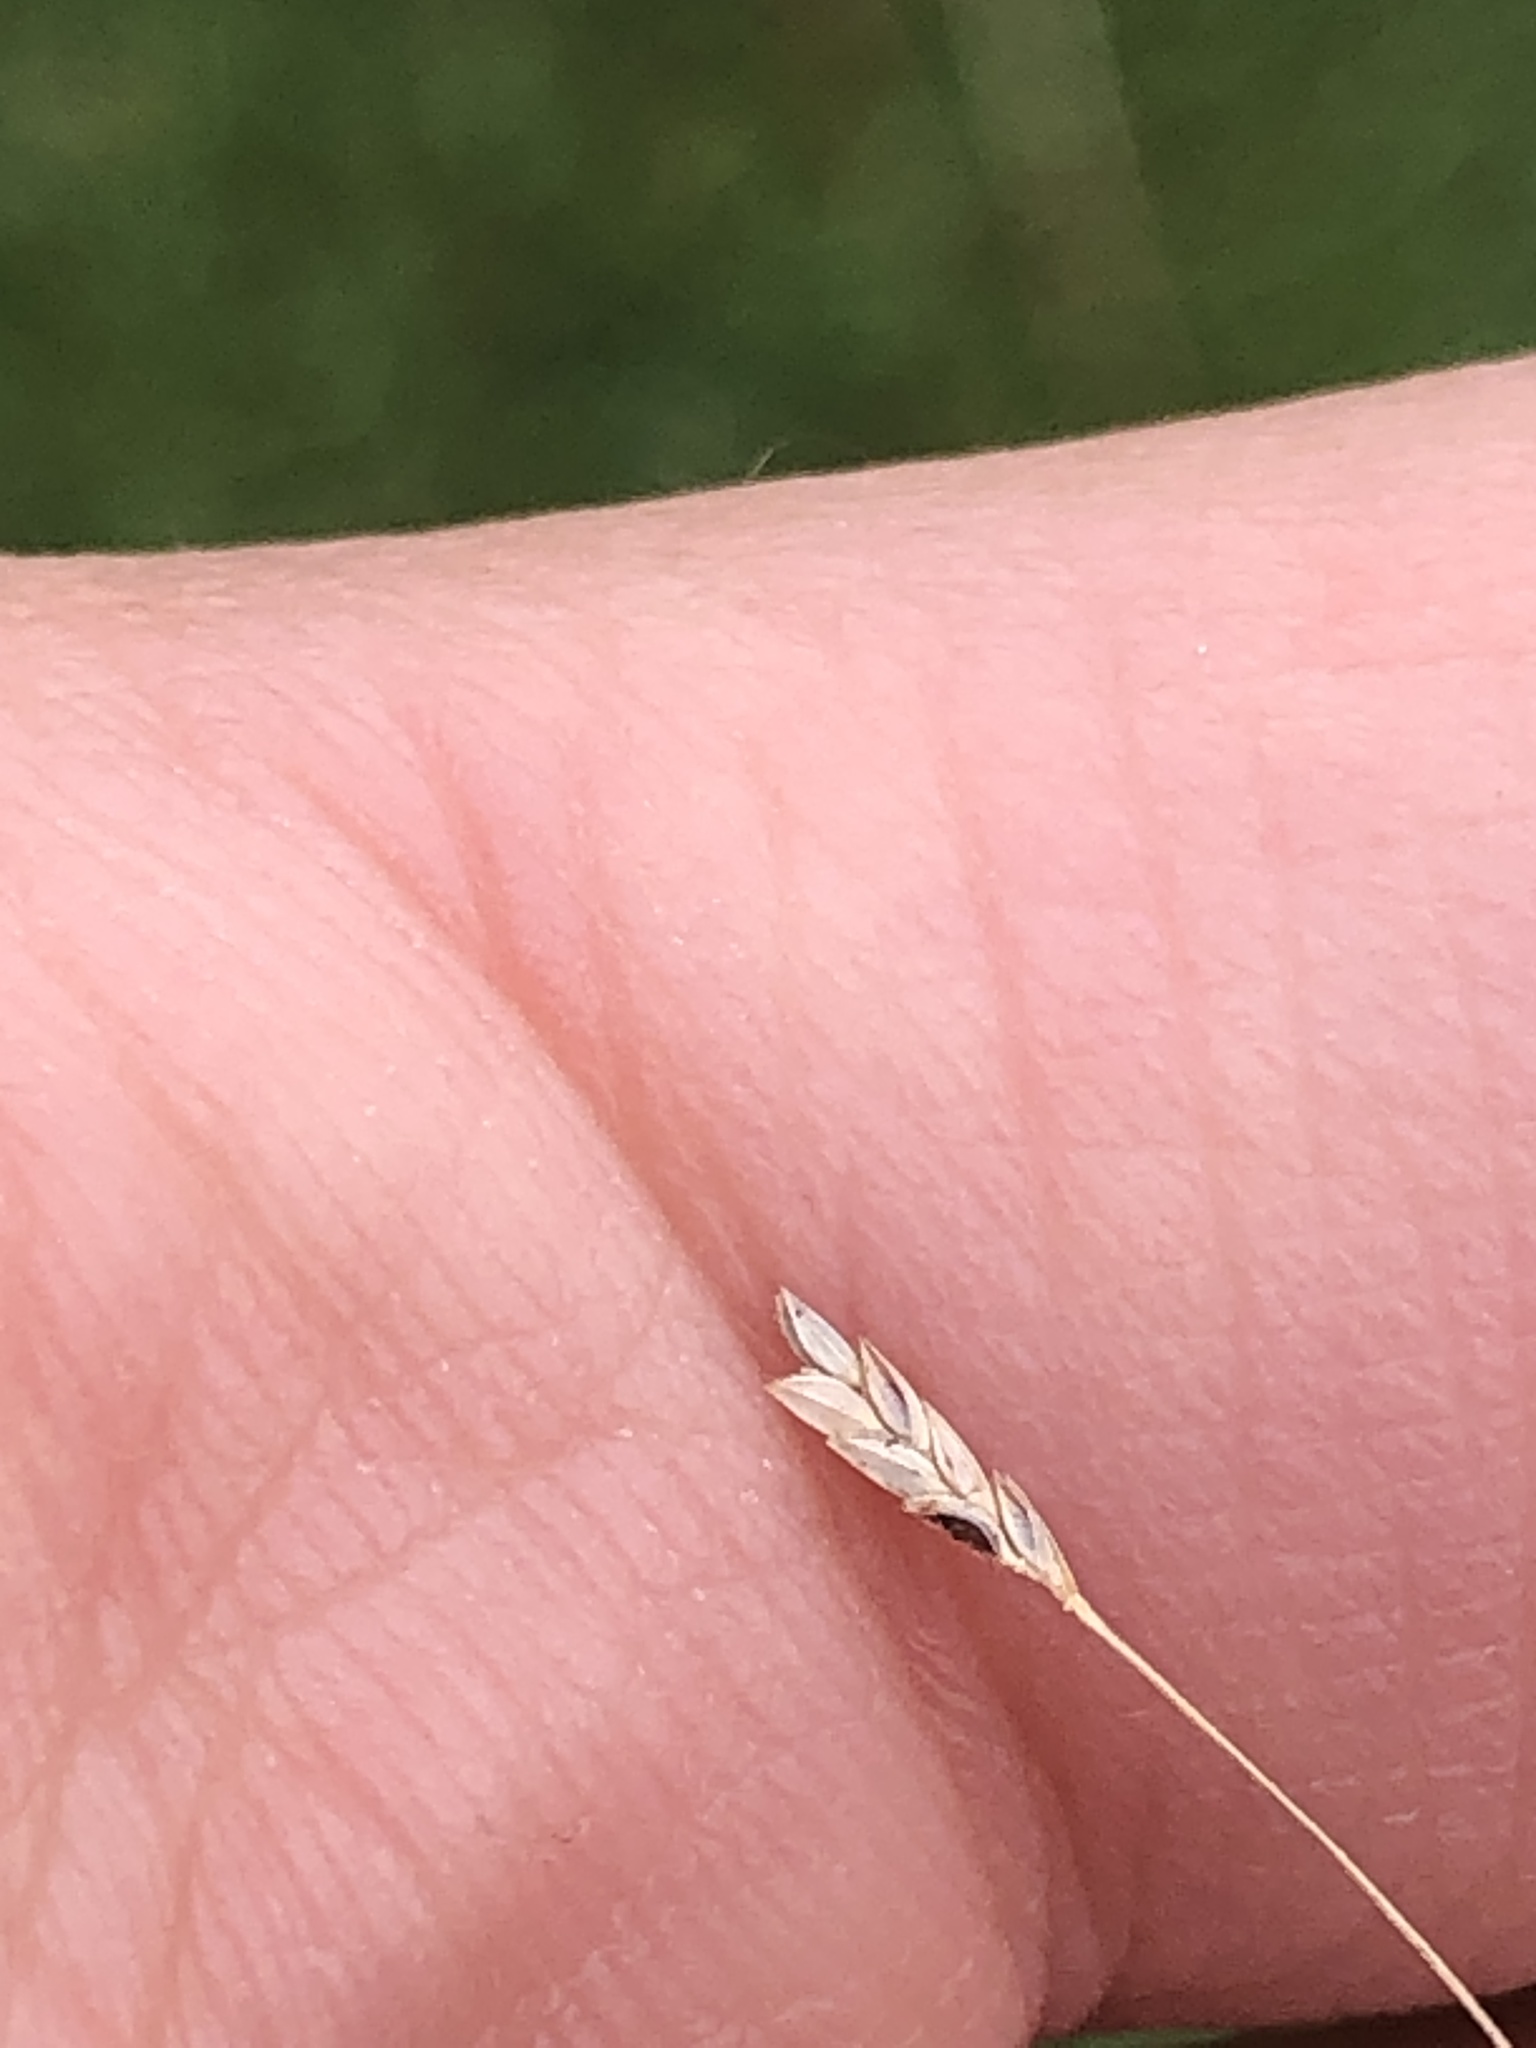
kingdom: Plantae
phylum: Tracheophyta
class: Liliopsida
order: Poales
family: Poaceae
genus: Eragrostis
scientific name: Eragrostis spectabilis
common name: Petticoat-climber
